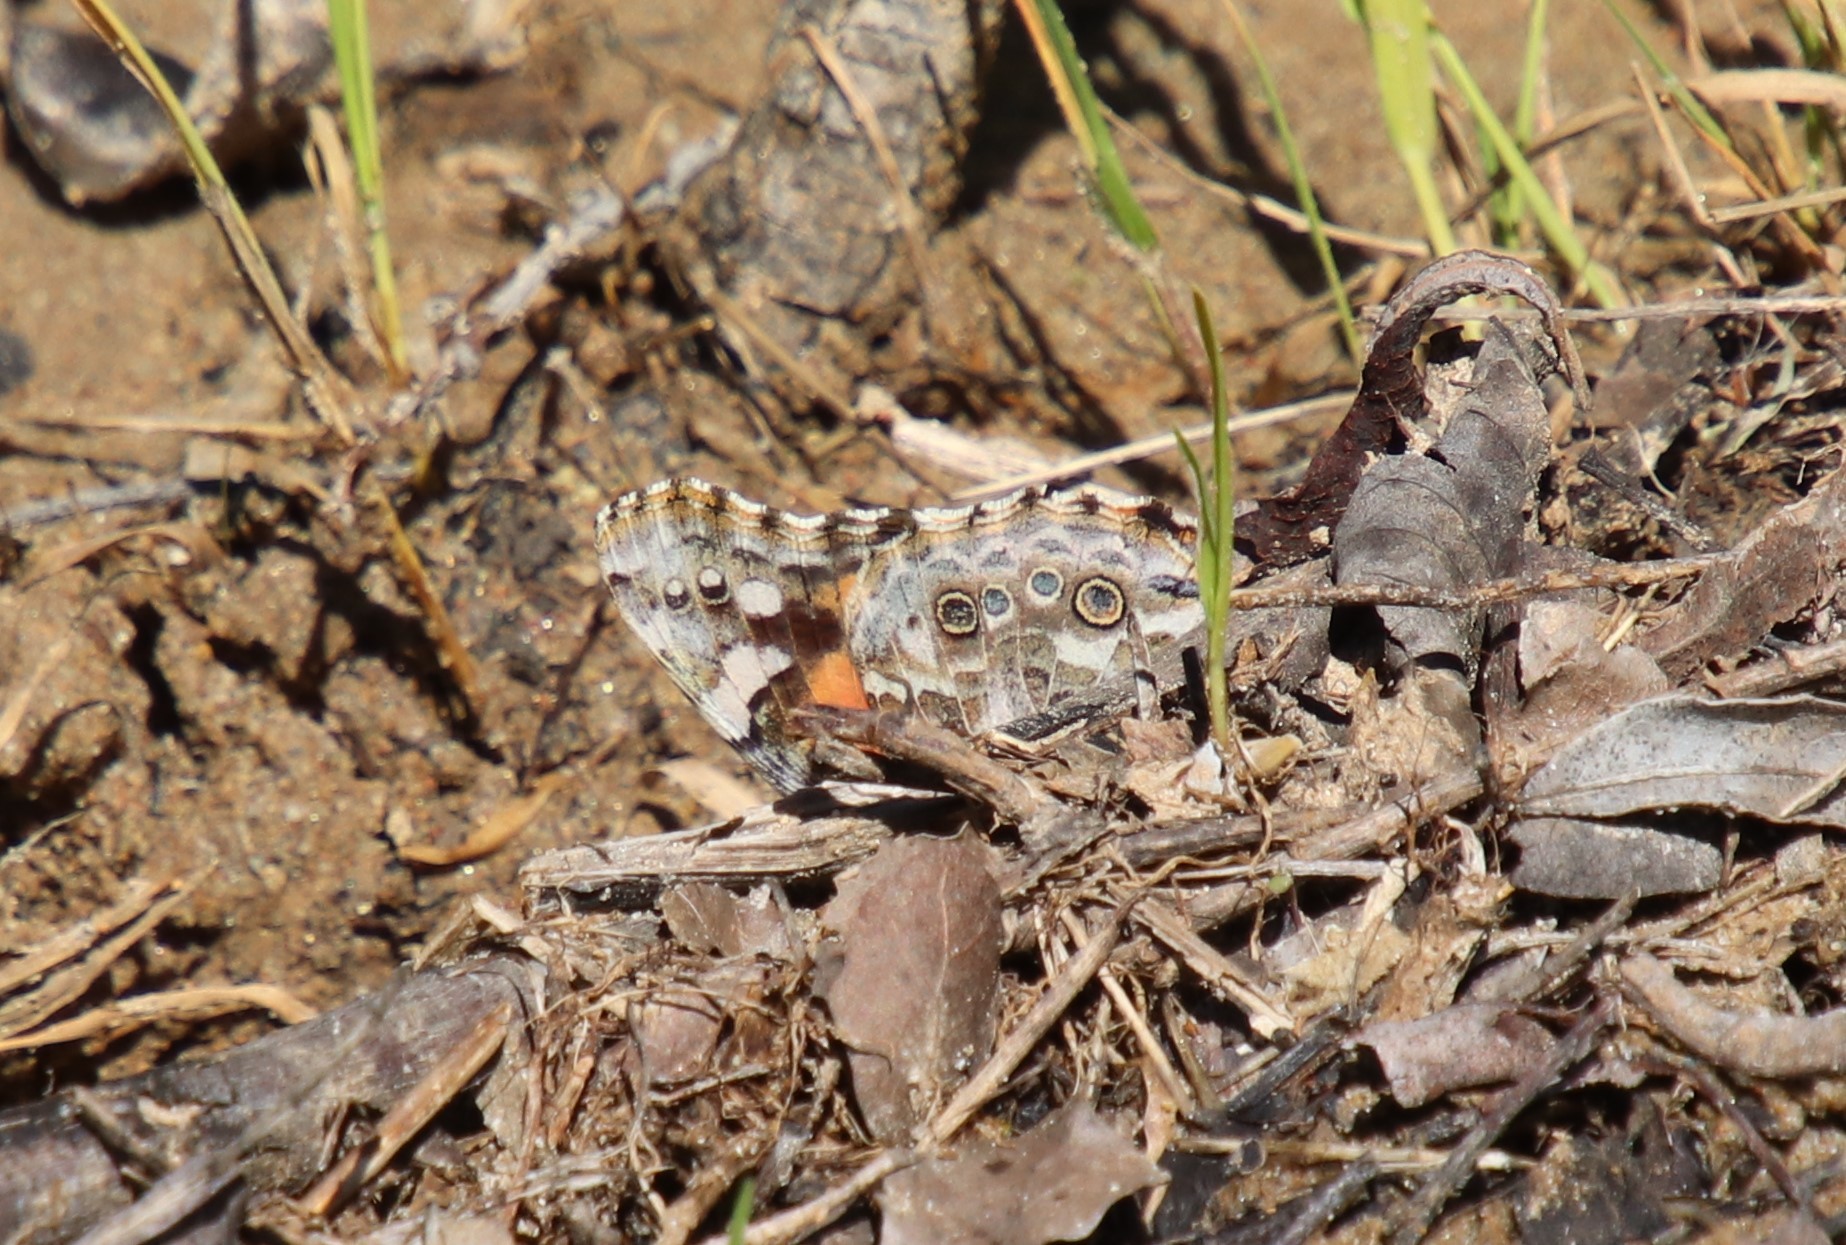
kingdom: Animalia
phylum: Arthropoda
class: Insecta
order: Lepidoptera
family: Nymphalidae
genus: Vanessa
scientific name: Vanessa cardui
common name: Painted lady
